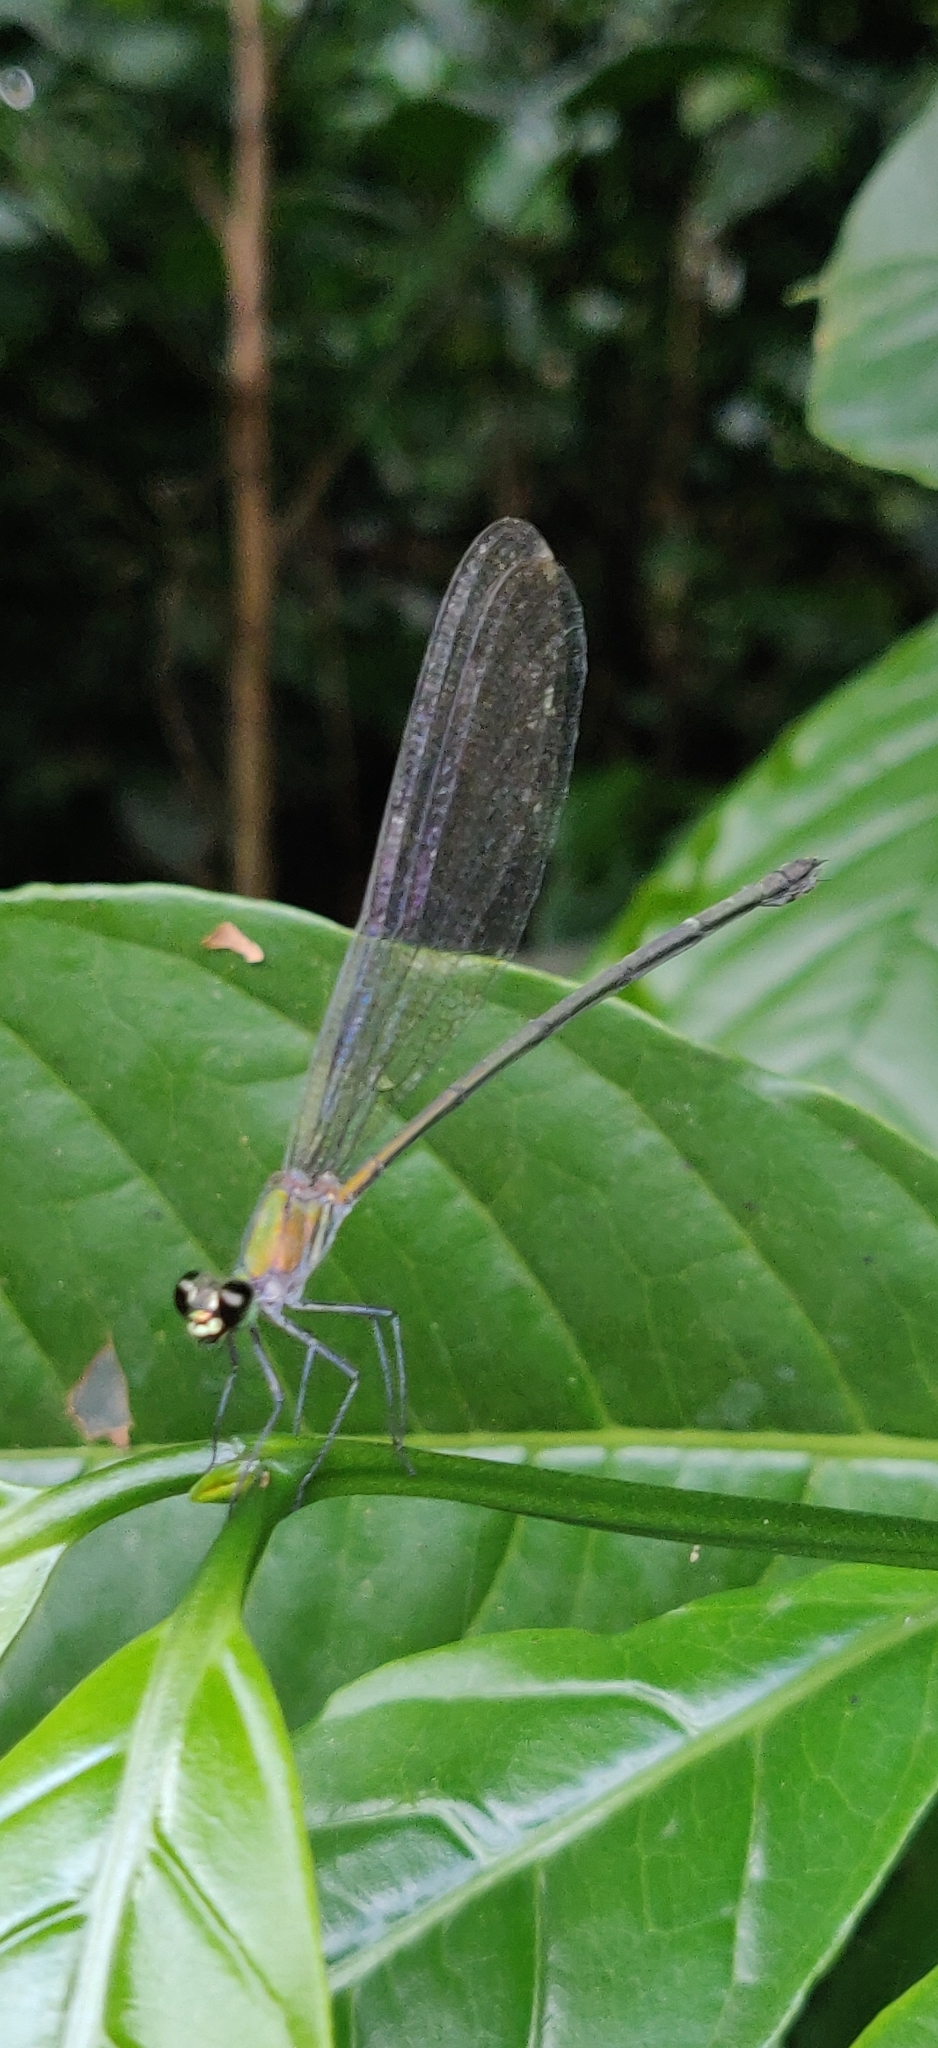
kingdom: Animalia
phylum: Arthropoda
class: Insecta
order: Odonata
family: Calopterygidae
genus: Vestalis
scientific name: Vestalis gracilis
